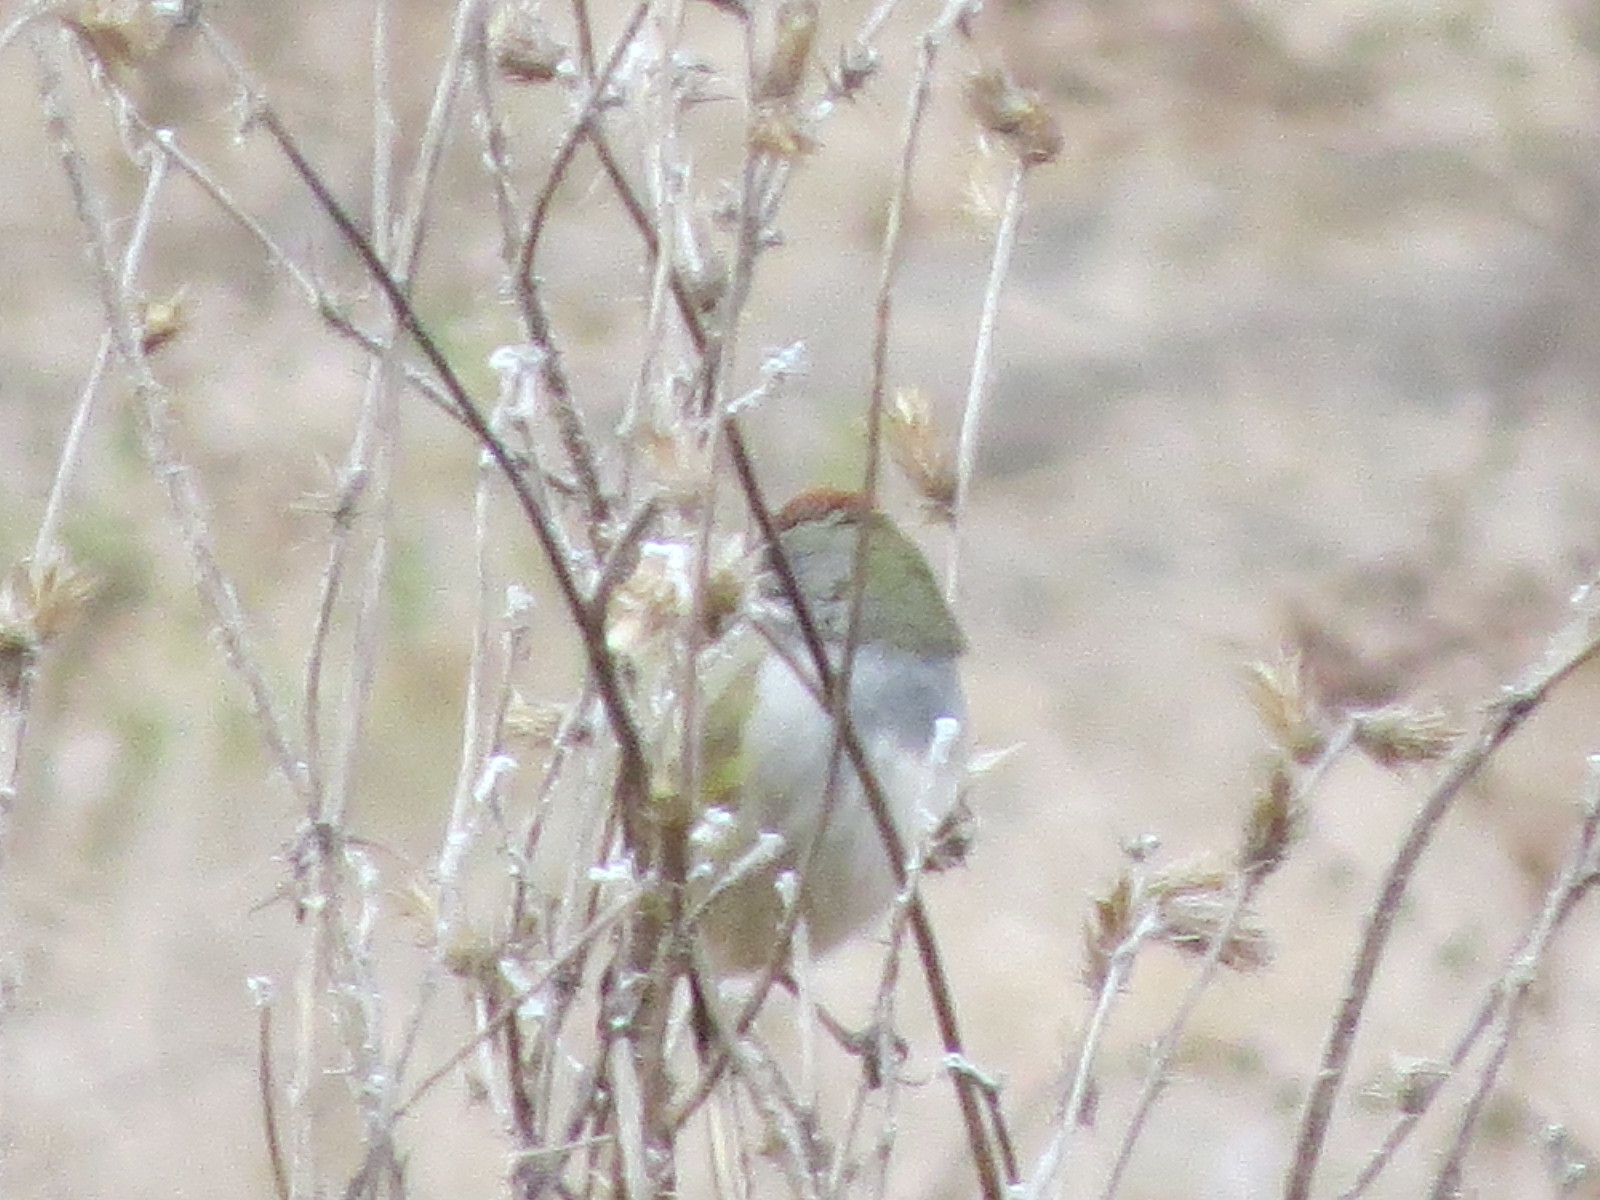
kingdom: Animalia
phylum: Chordata
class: Aves
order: Passeriformes
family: Passerellidae
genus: Pipilo
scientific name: Pipilo chlorurus
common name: Green-tailed towhee
